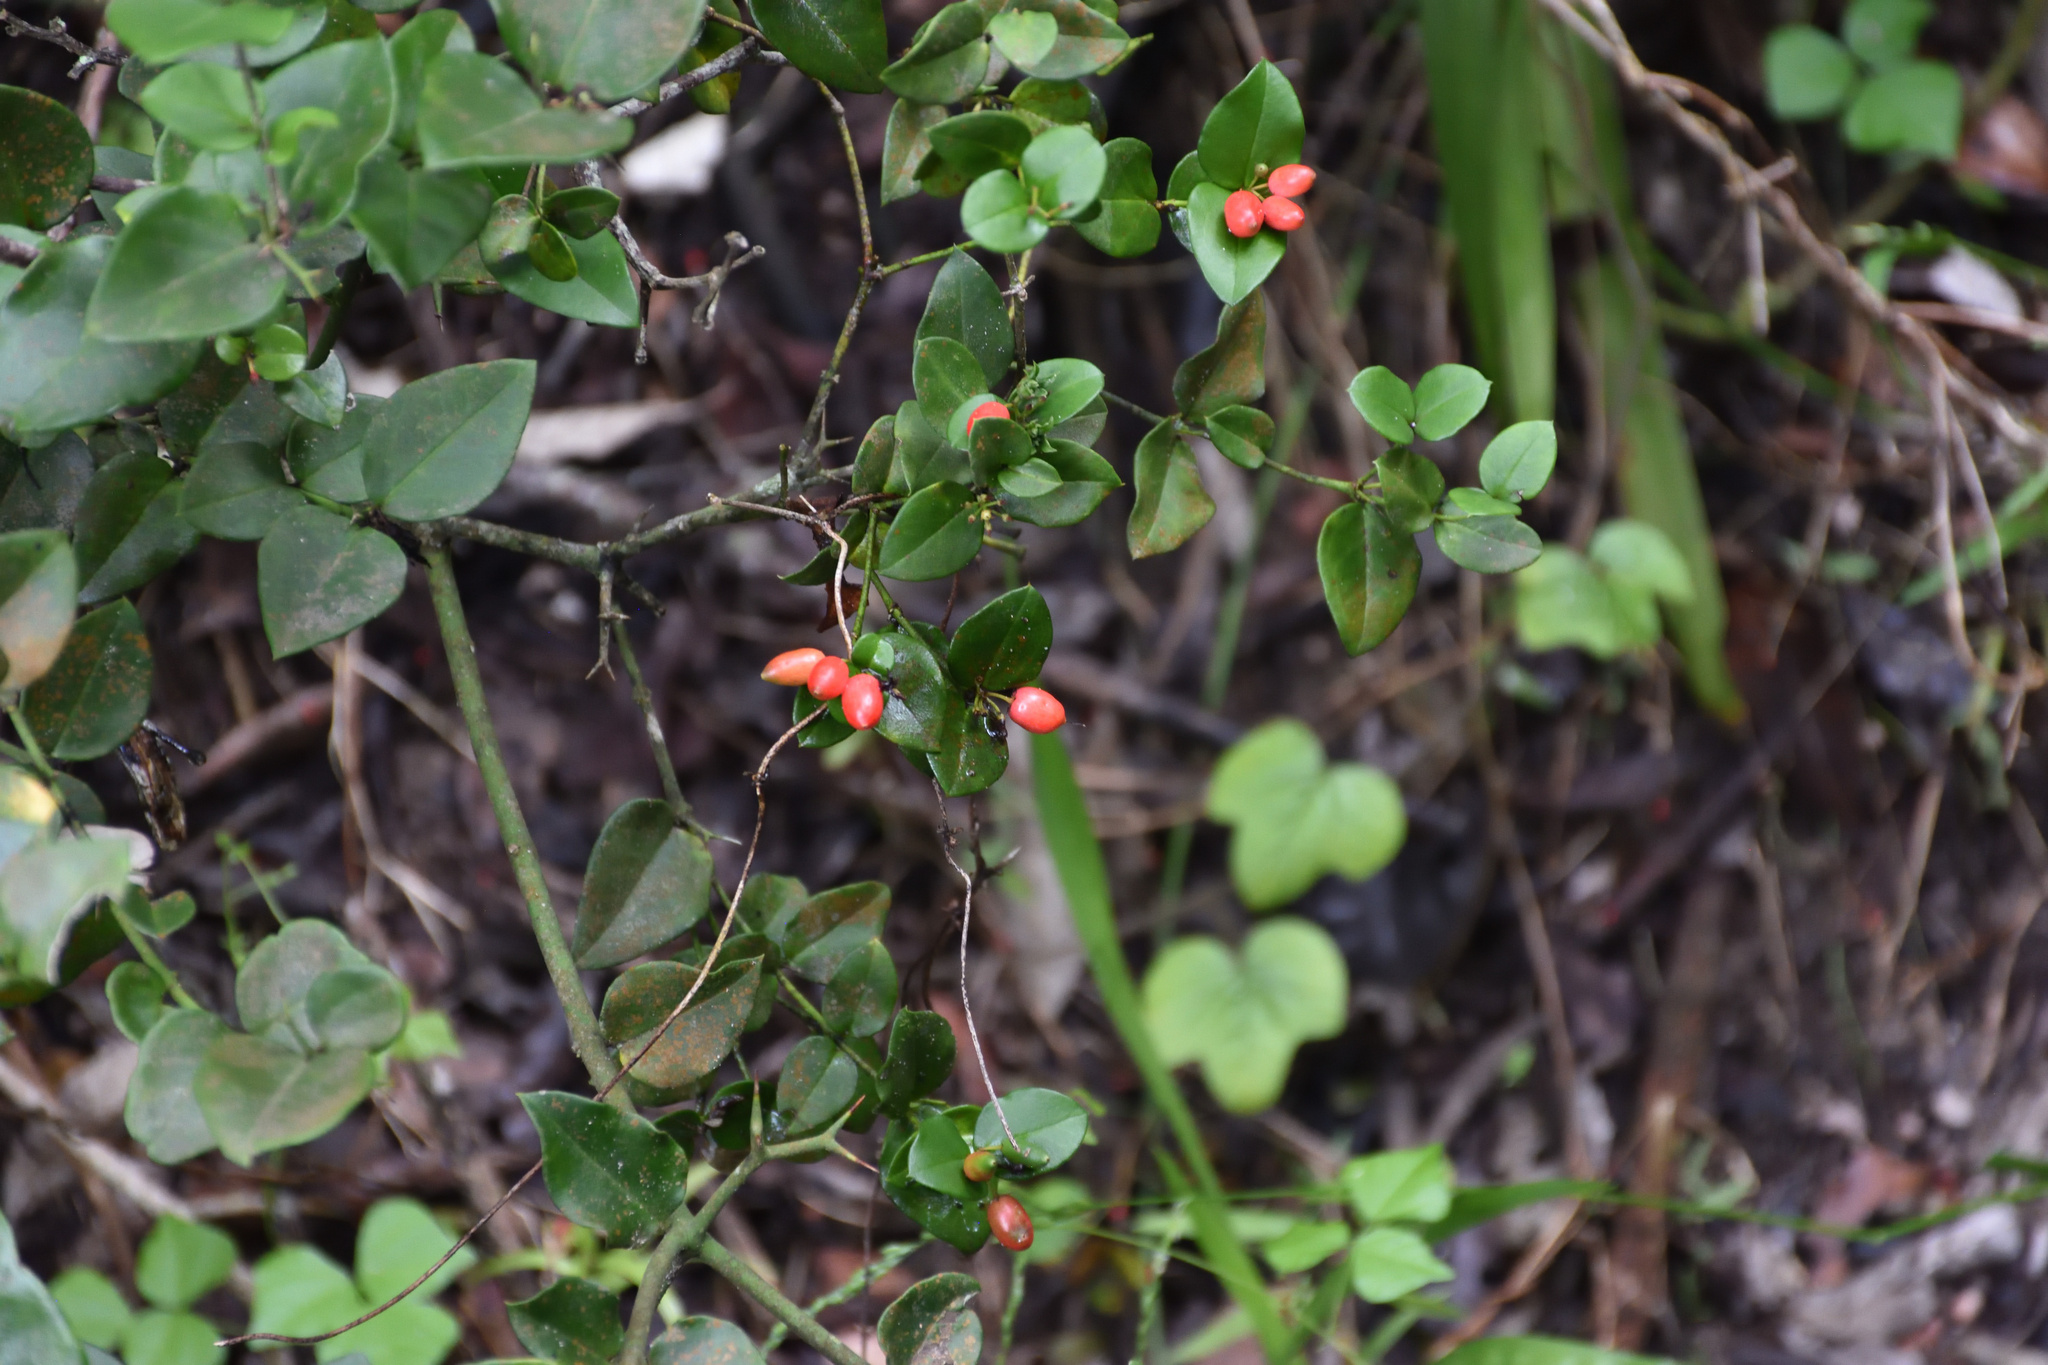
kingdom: Plantae
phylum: Tracheophyta
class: Magnoliopsida
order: Gentianales
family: Apocynaceae
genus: Carissa
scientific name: Carissa bispinosa
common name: Forest num-num
